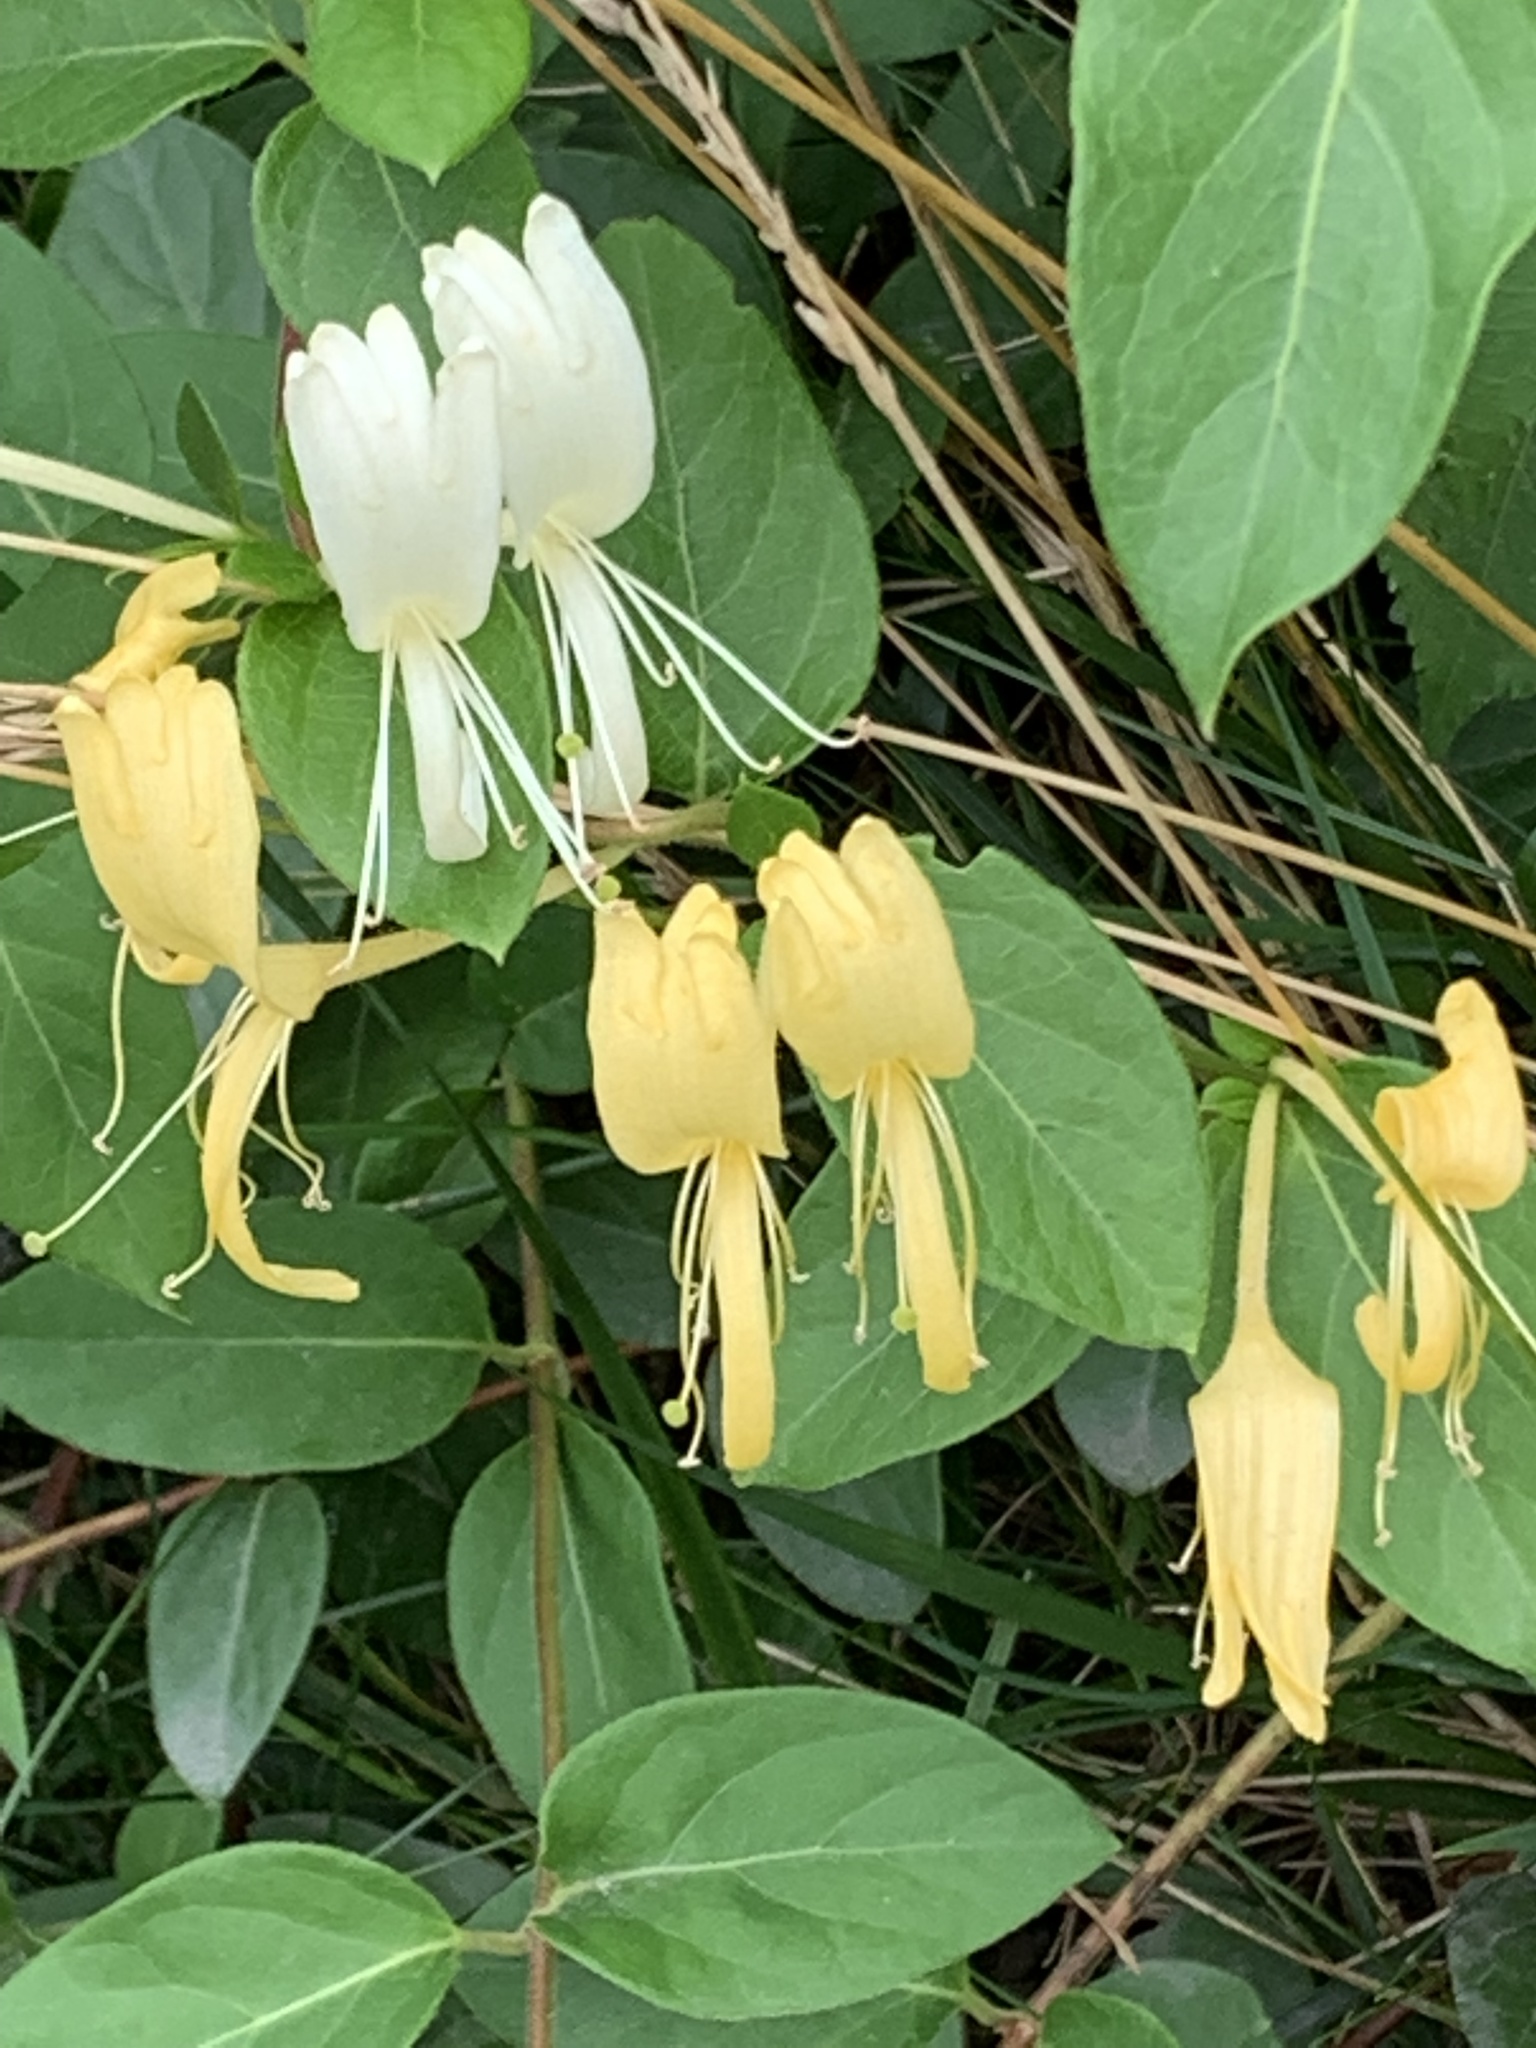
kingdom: Plantae
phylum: Tracheophyta
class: Magnoliopsida
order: Dipsacales
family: Caprifoliaceae
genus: Lonicera
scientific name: Lonicera japonica
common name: Japanese honeysuckle
